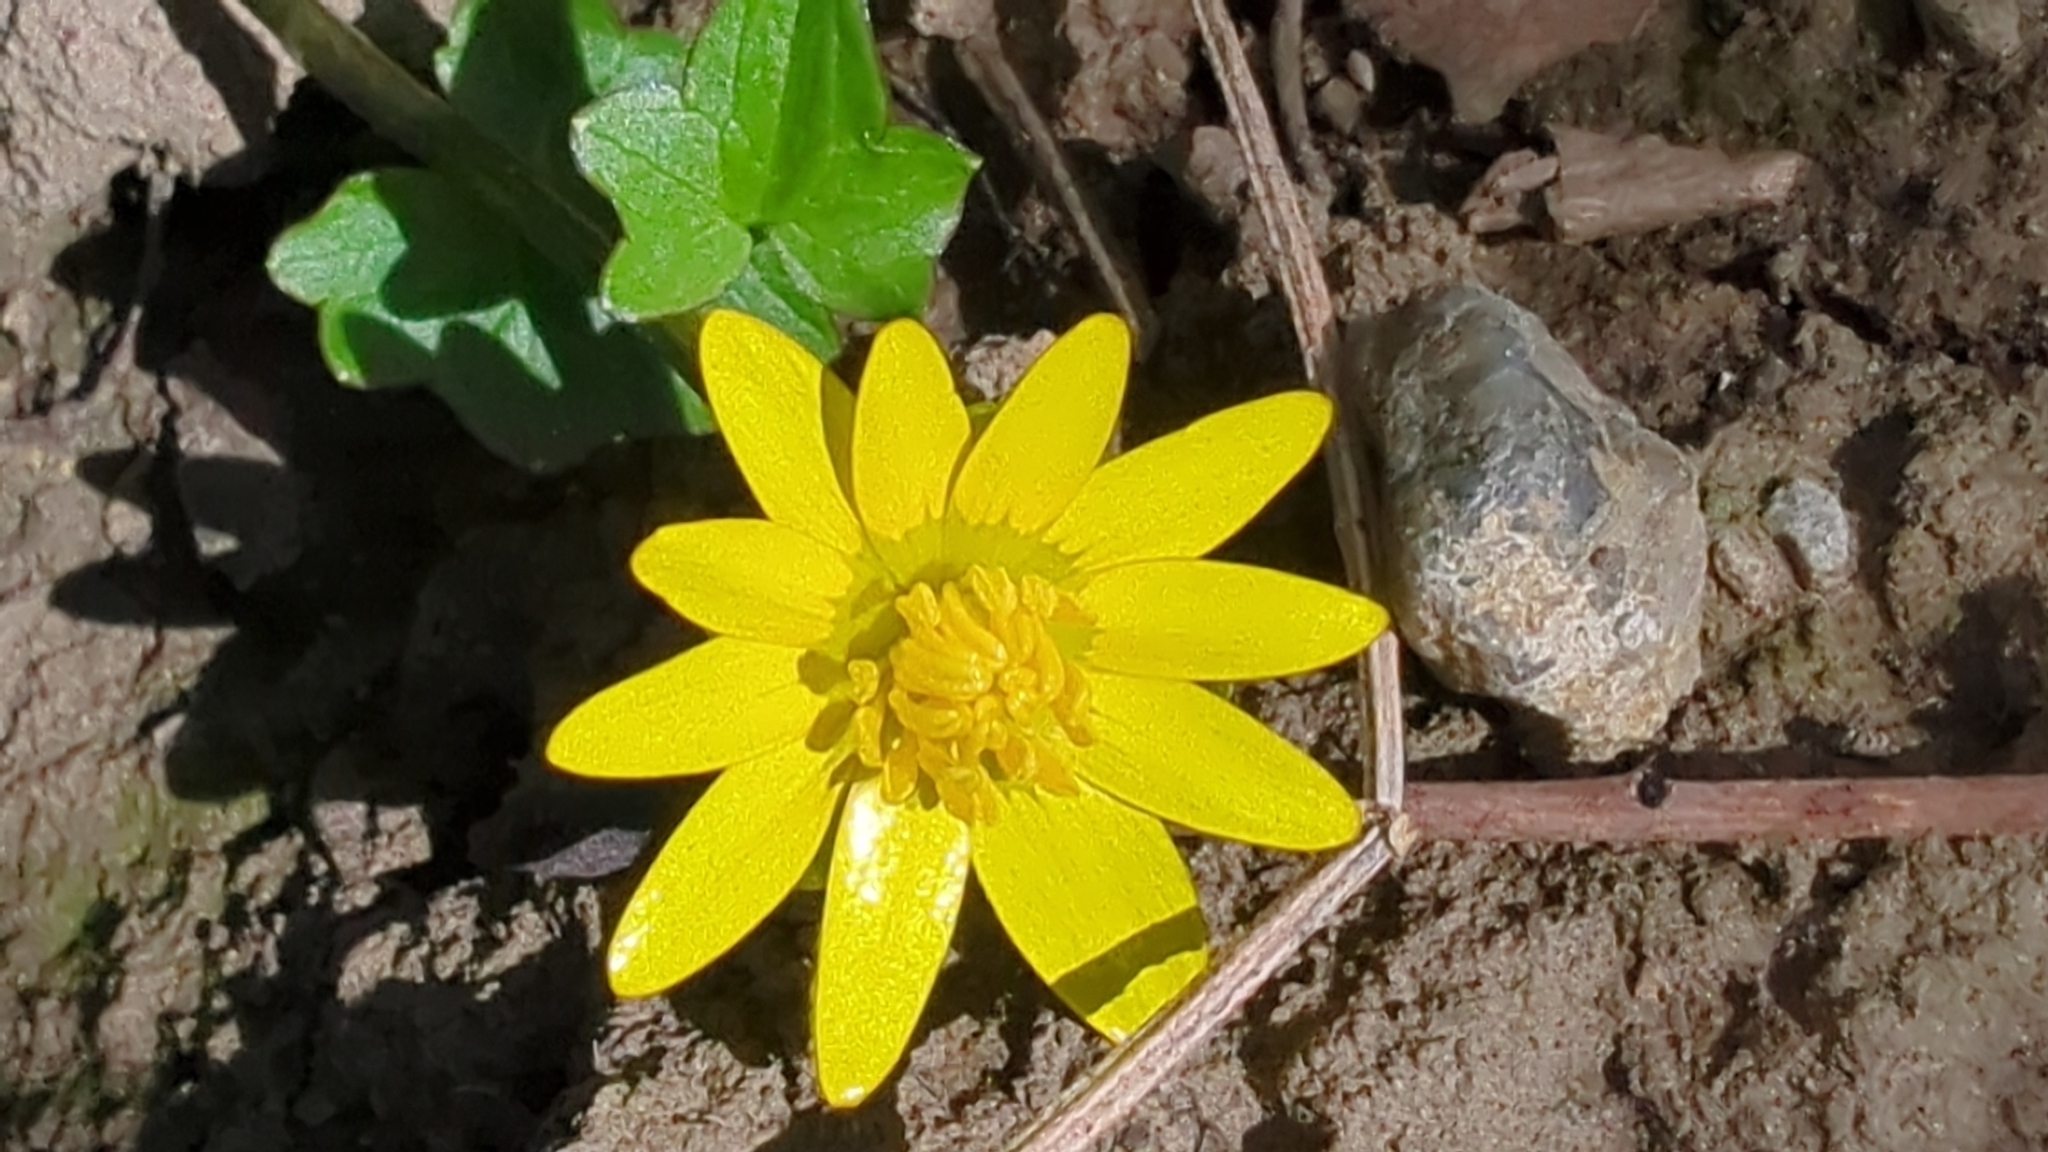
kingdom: Plantae
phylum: Tracheophyta
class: Magnoliopsida
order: Ranunculales
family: Ranunculaceae
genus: Ficaria
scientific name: Ficaria verna
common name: Lesser celandine
